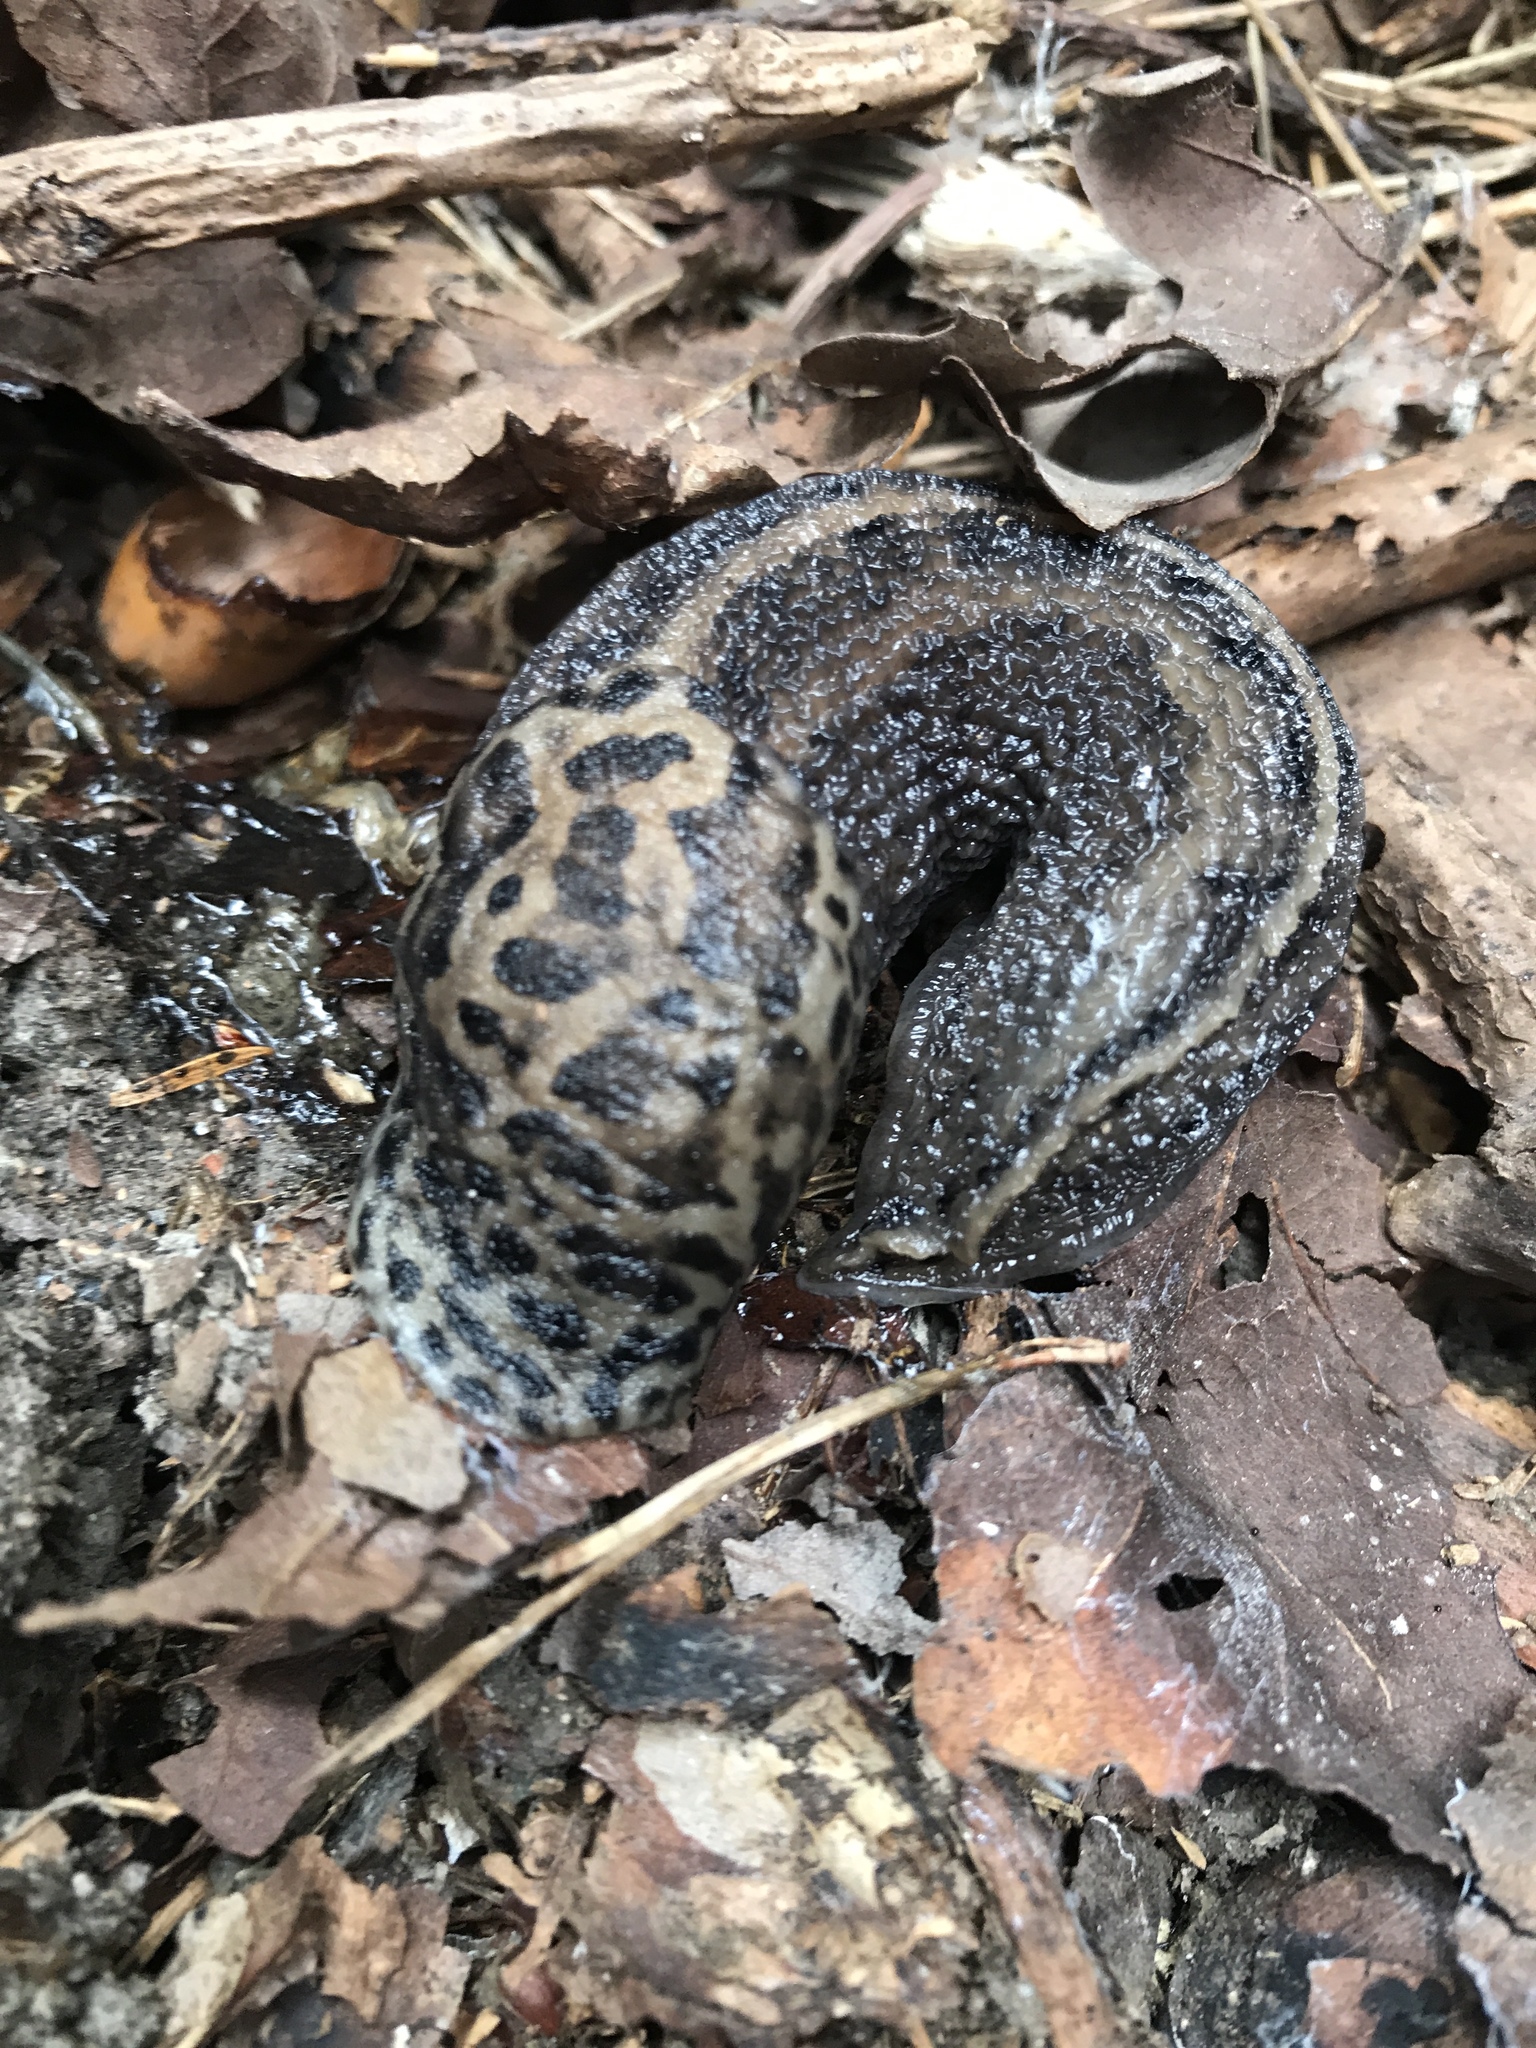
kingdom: Animalia
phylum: Mollusca
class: Gastropoda
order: Stylommatophora
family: Limacidae
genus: Limax
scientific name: Limax maximus
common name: Great grey slug
